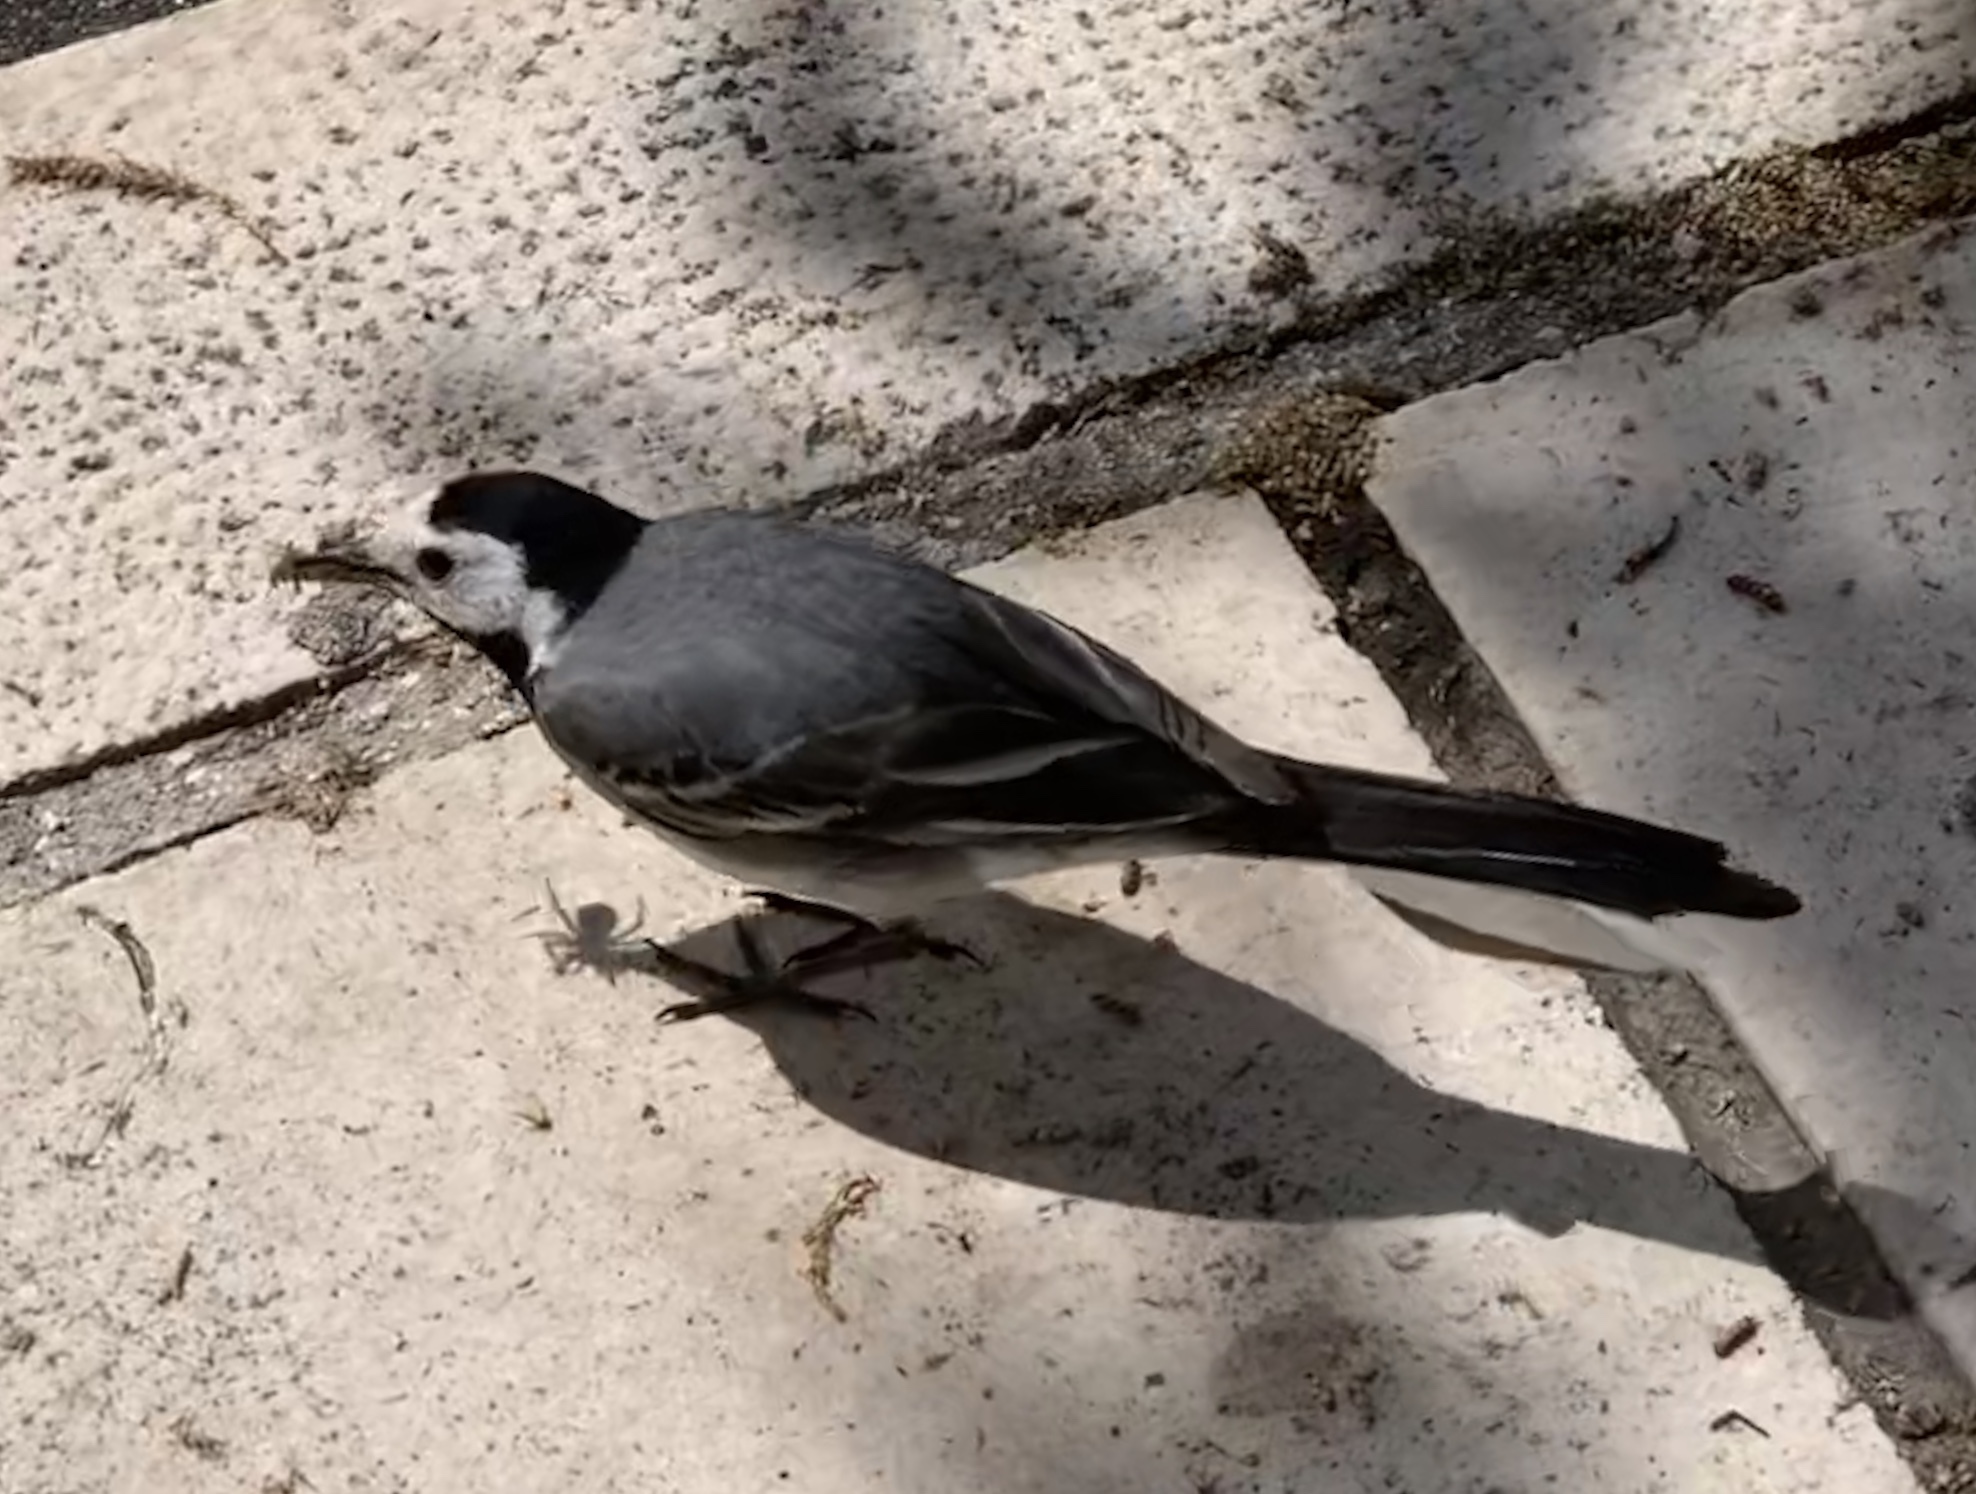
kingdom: Animalia
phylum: Chordata
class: Aves
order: Passeriformes
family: Motacillidae
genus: Motacilla
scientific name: Motacilla alba
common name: White wagtail
